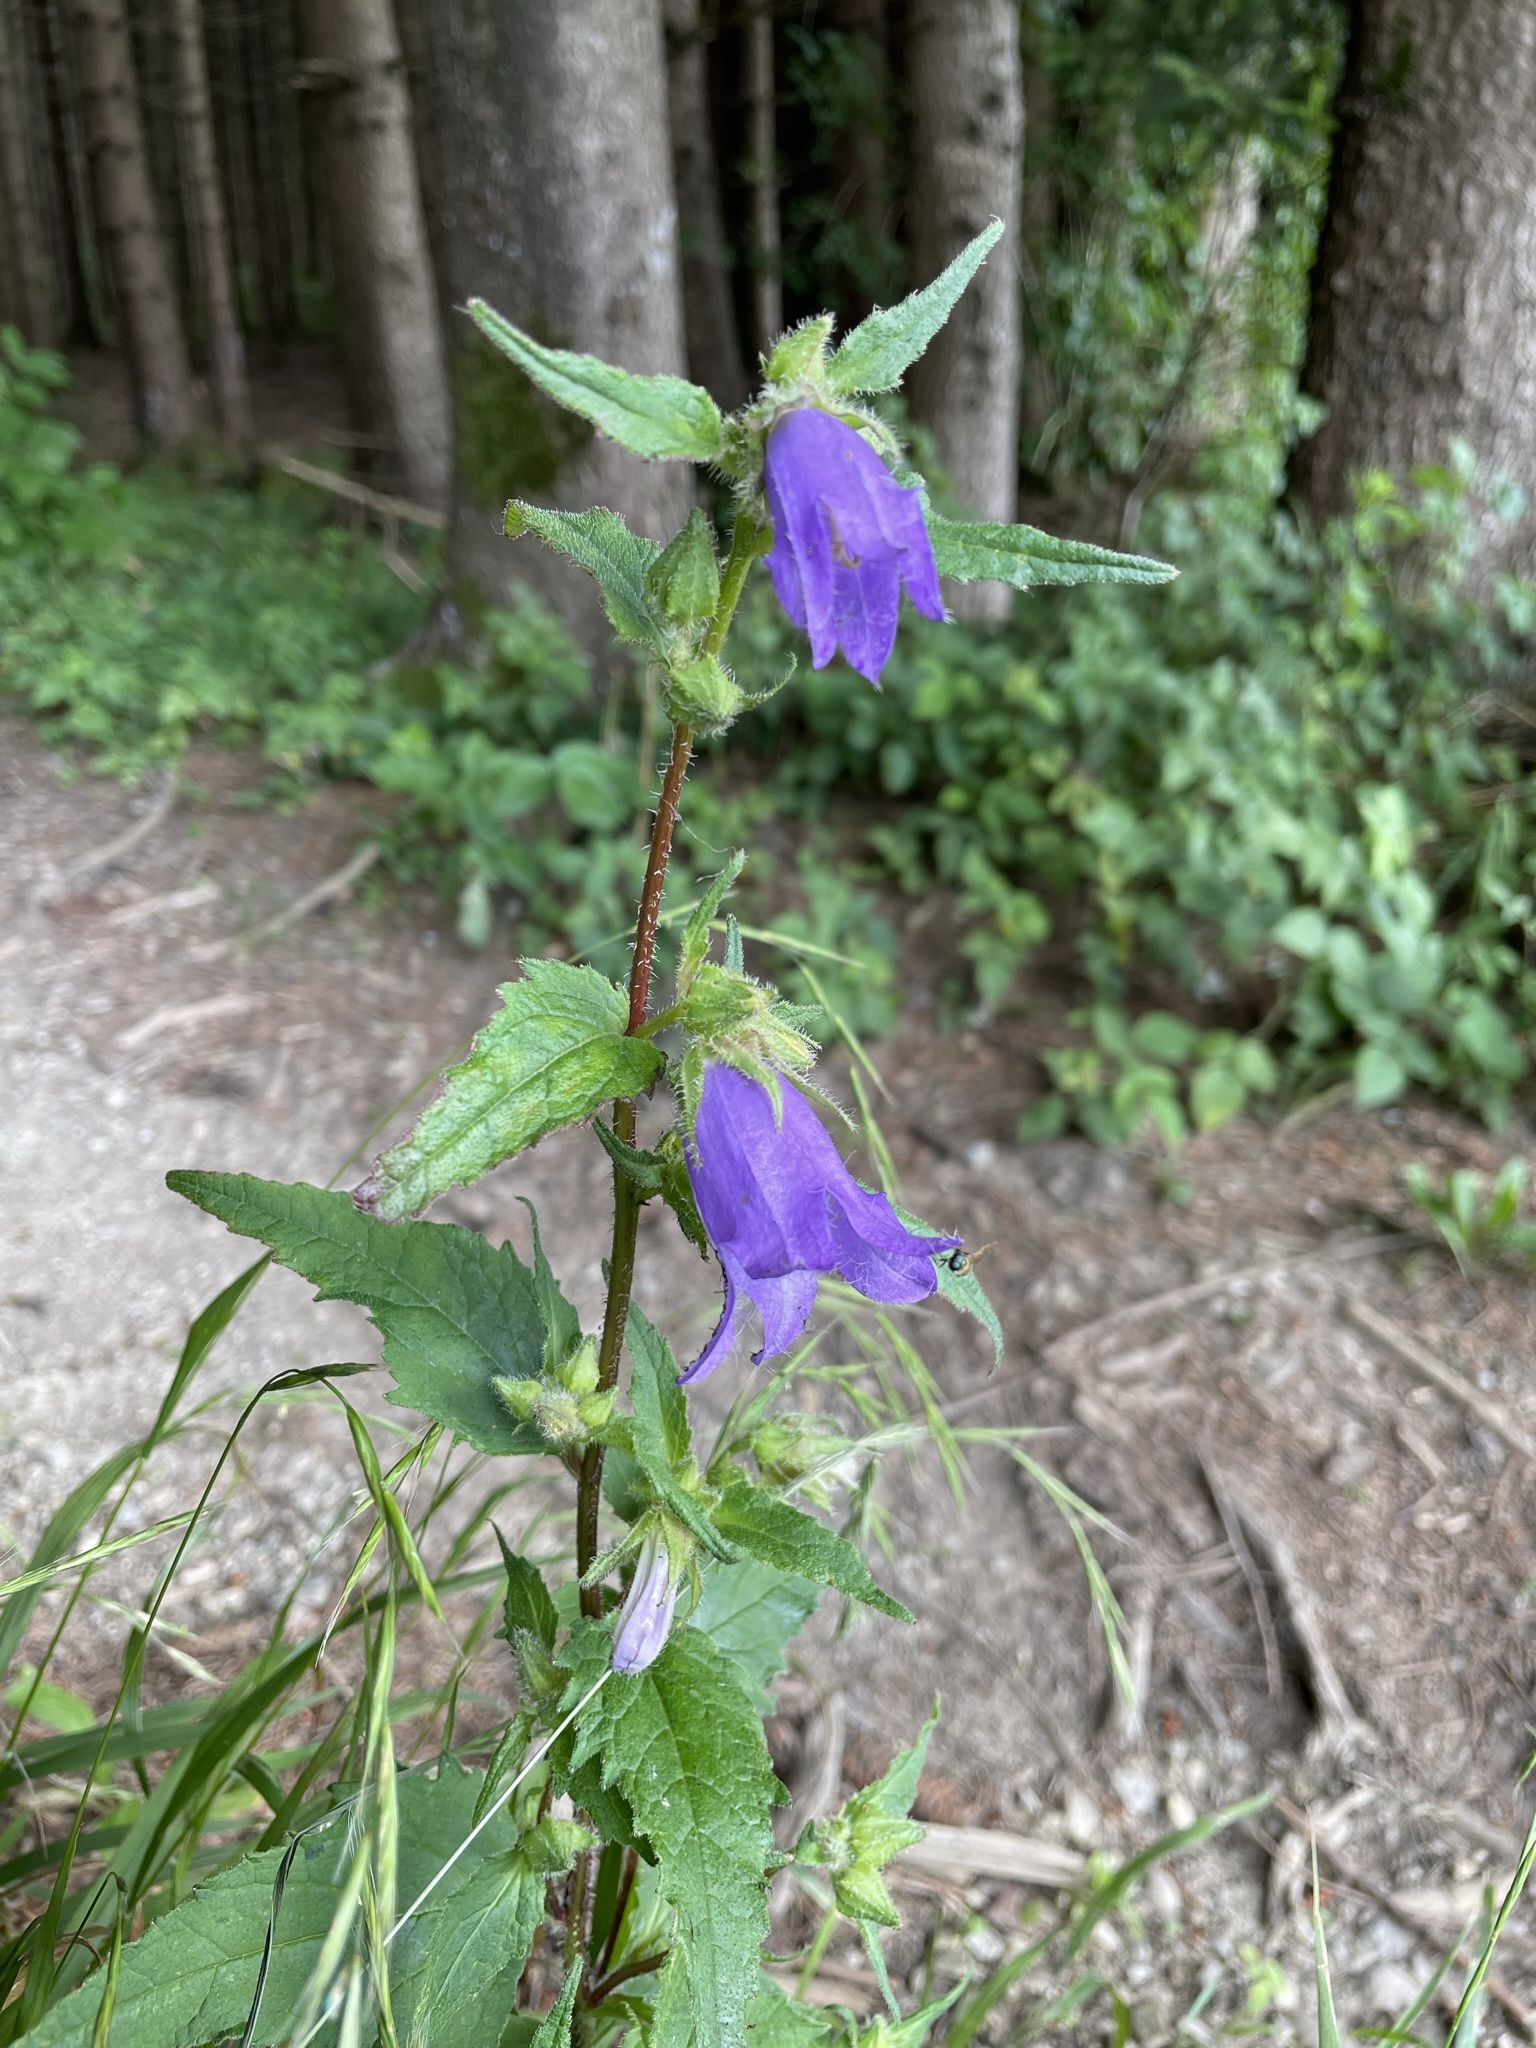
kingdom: Plantae
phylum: Tracheophyta
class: Magnoliopsida
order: Asterales
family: Campanulaceae
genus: Campanula
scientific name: Campanula trachelium
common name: Nettle-leaved bellflower
